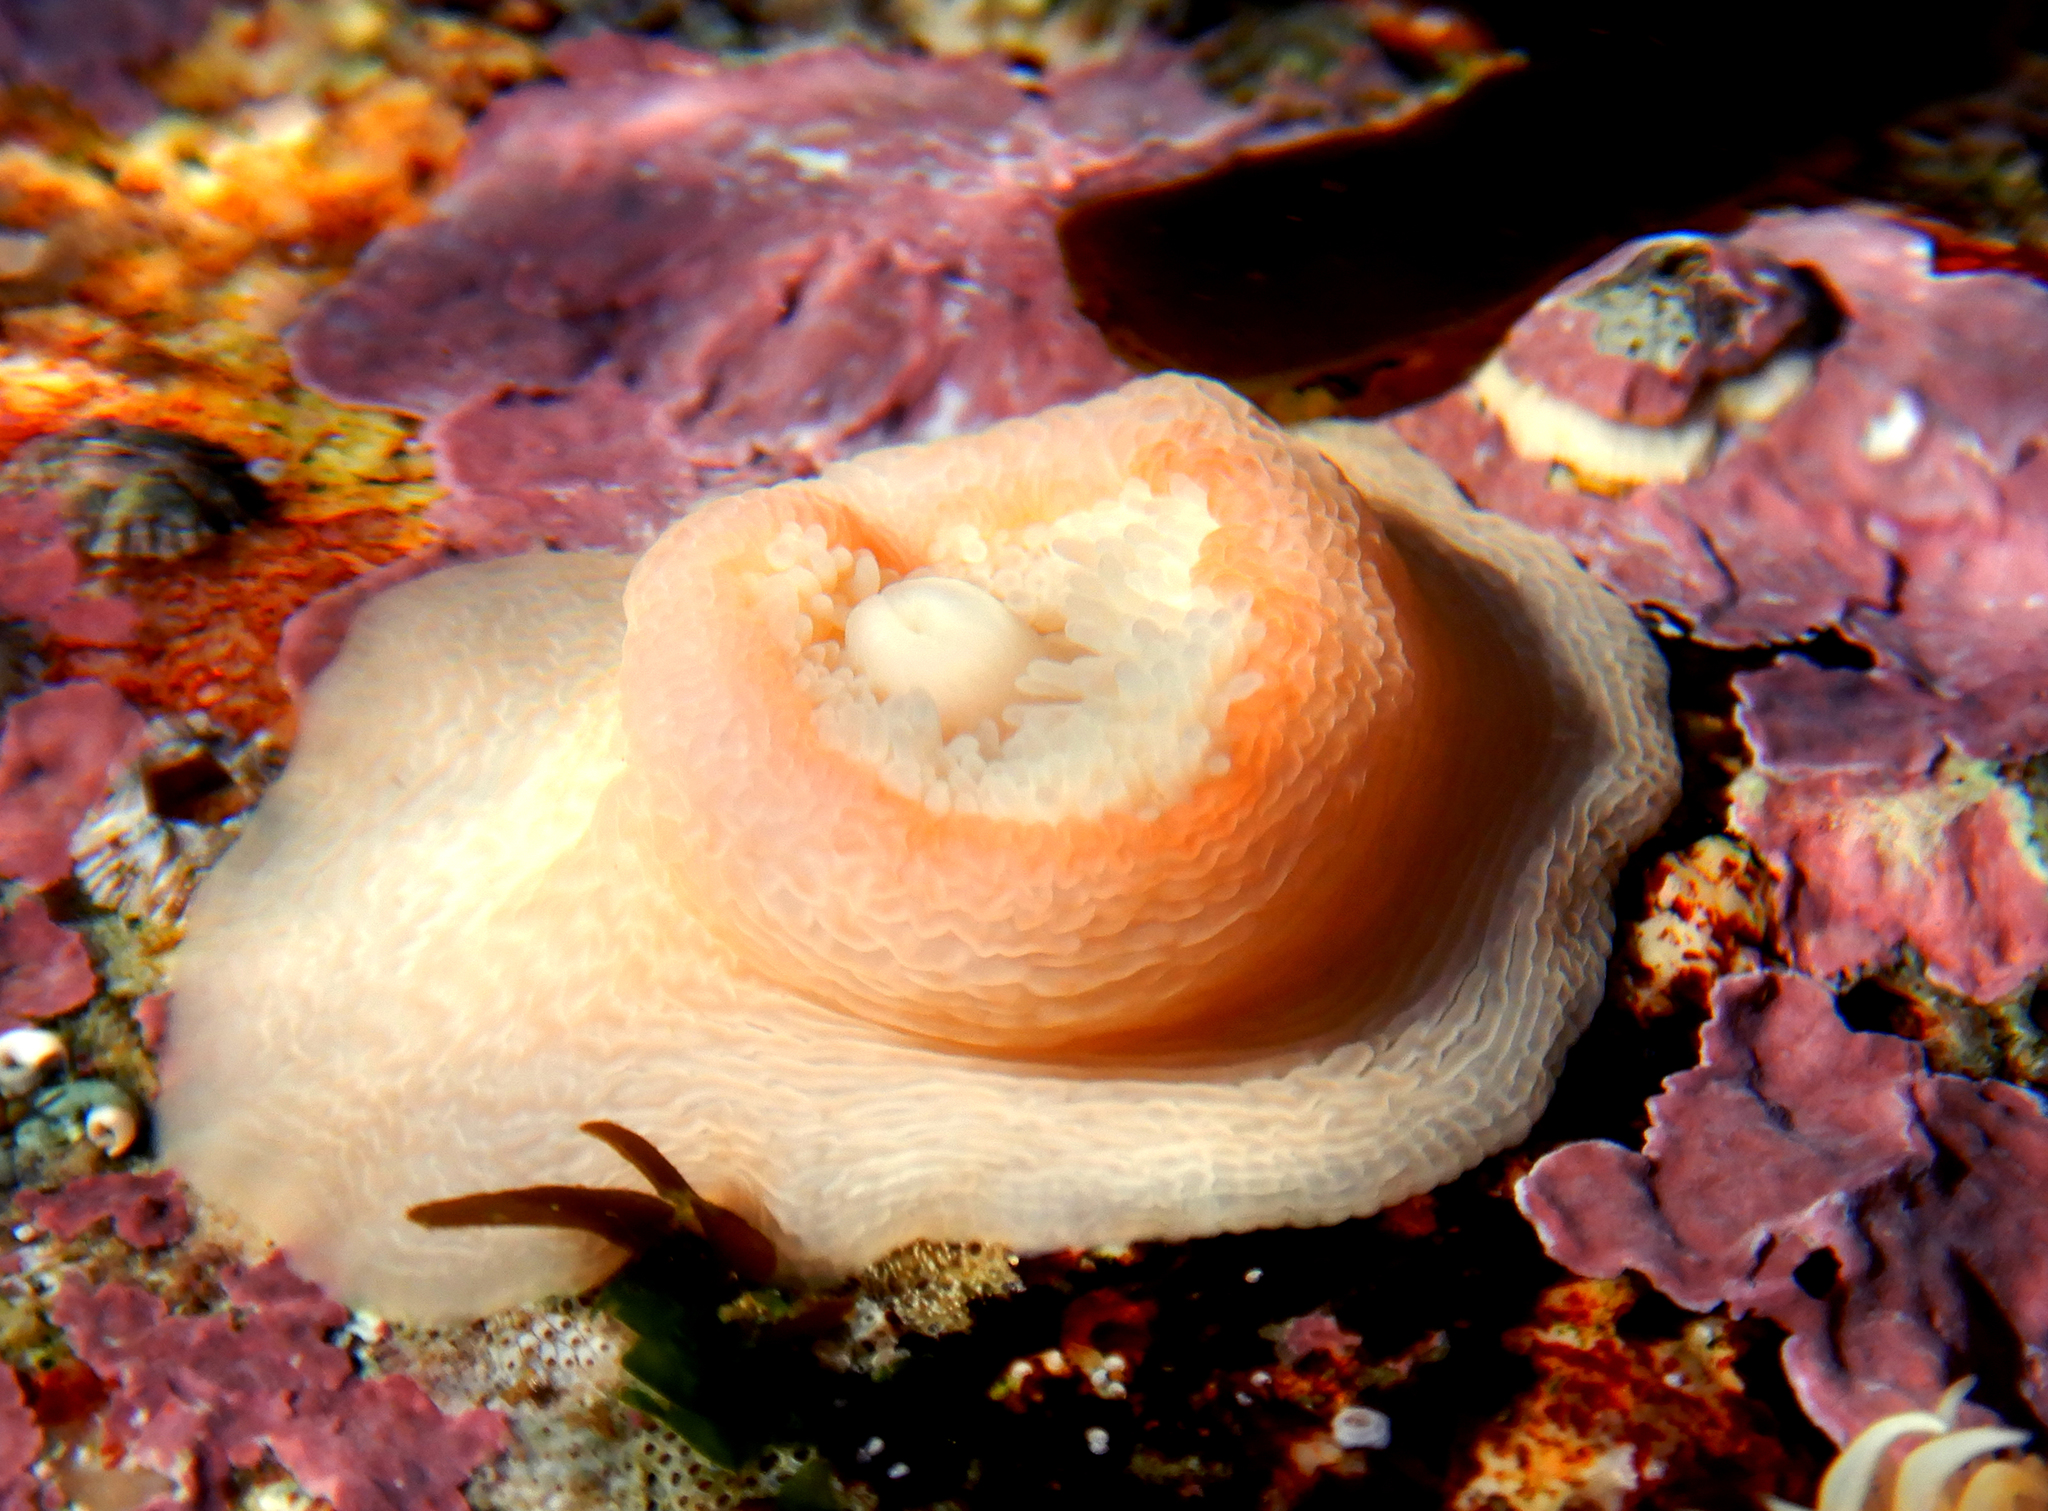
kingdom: Animalia
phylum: Cnidaria
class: Anthozoa
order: Actiniaria
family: Actinostolidae
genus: Antholoba
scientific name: Antholoba achates
